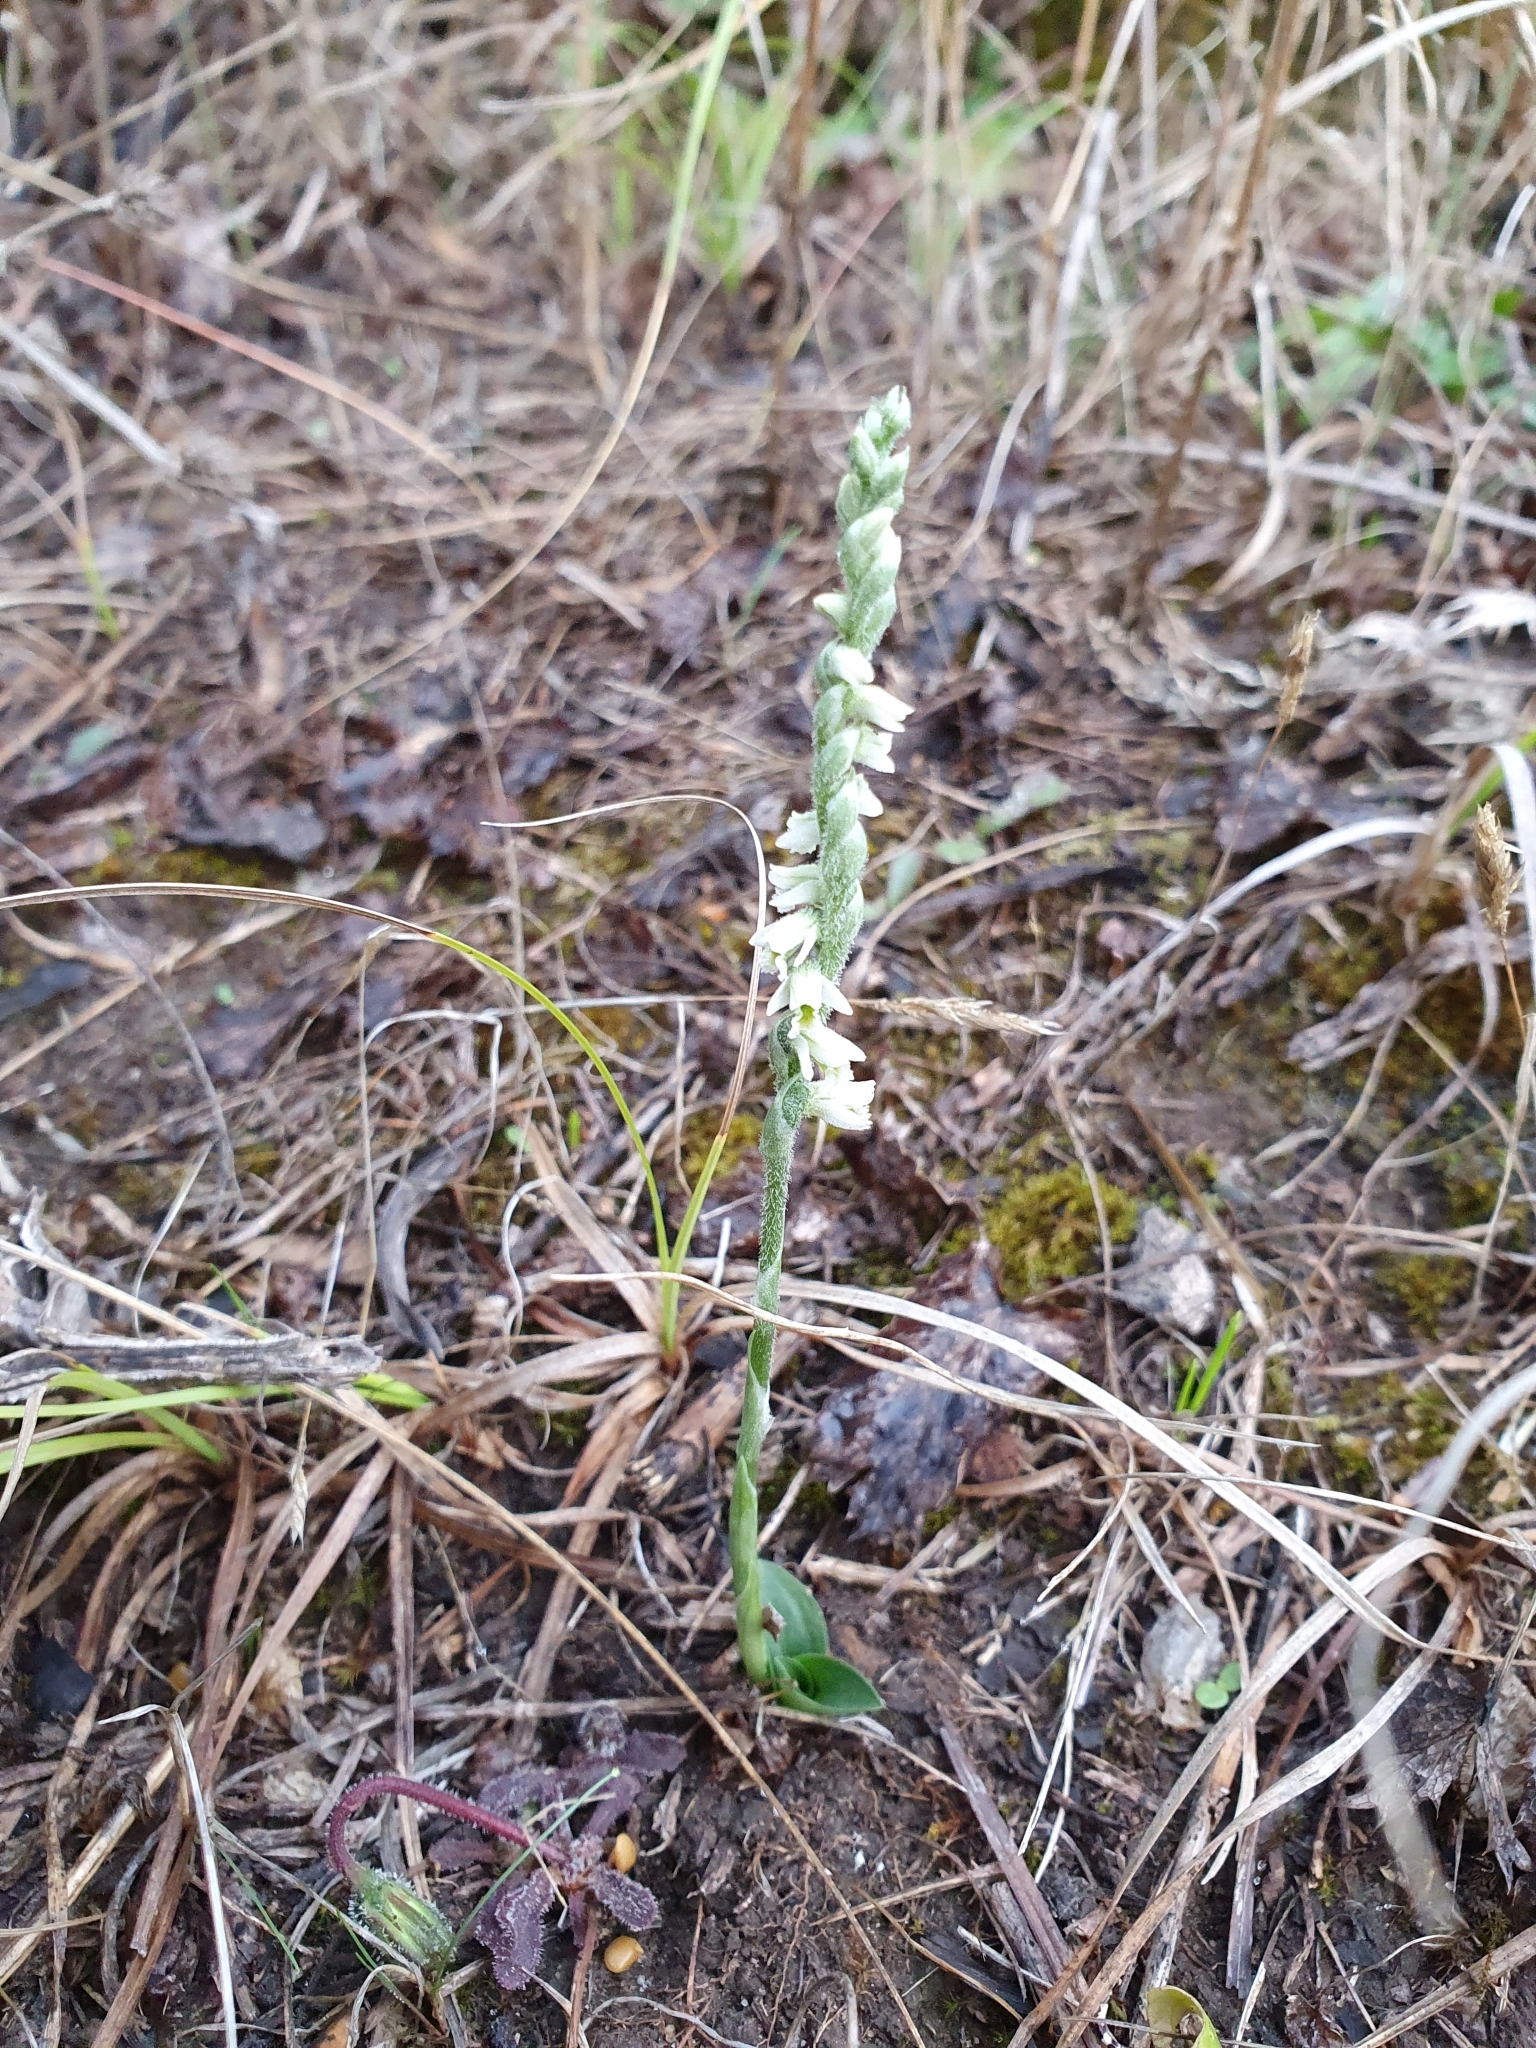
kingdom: Plantae
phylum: Tracheophyta
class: Liliopsida
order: Asparagales
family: Orchidaceae
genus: Spiranthes
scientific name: Spiranthes spiralis
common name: Autumn lady's-tresses
